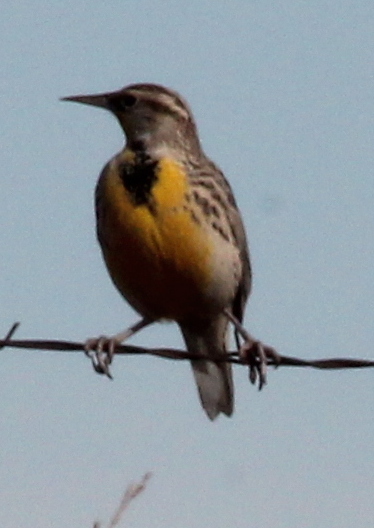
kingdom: Animalia
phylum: Chordata
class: Aves
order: Passeriformes
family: Icteridae
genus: Sturnella
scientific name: Sturnella neglecta
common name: Western meadowlark
